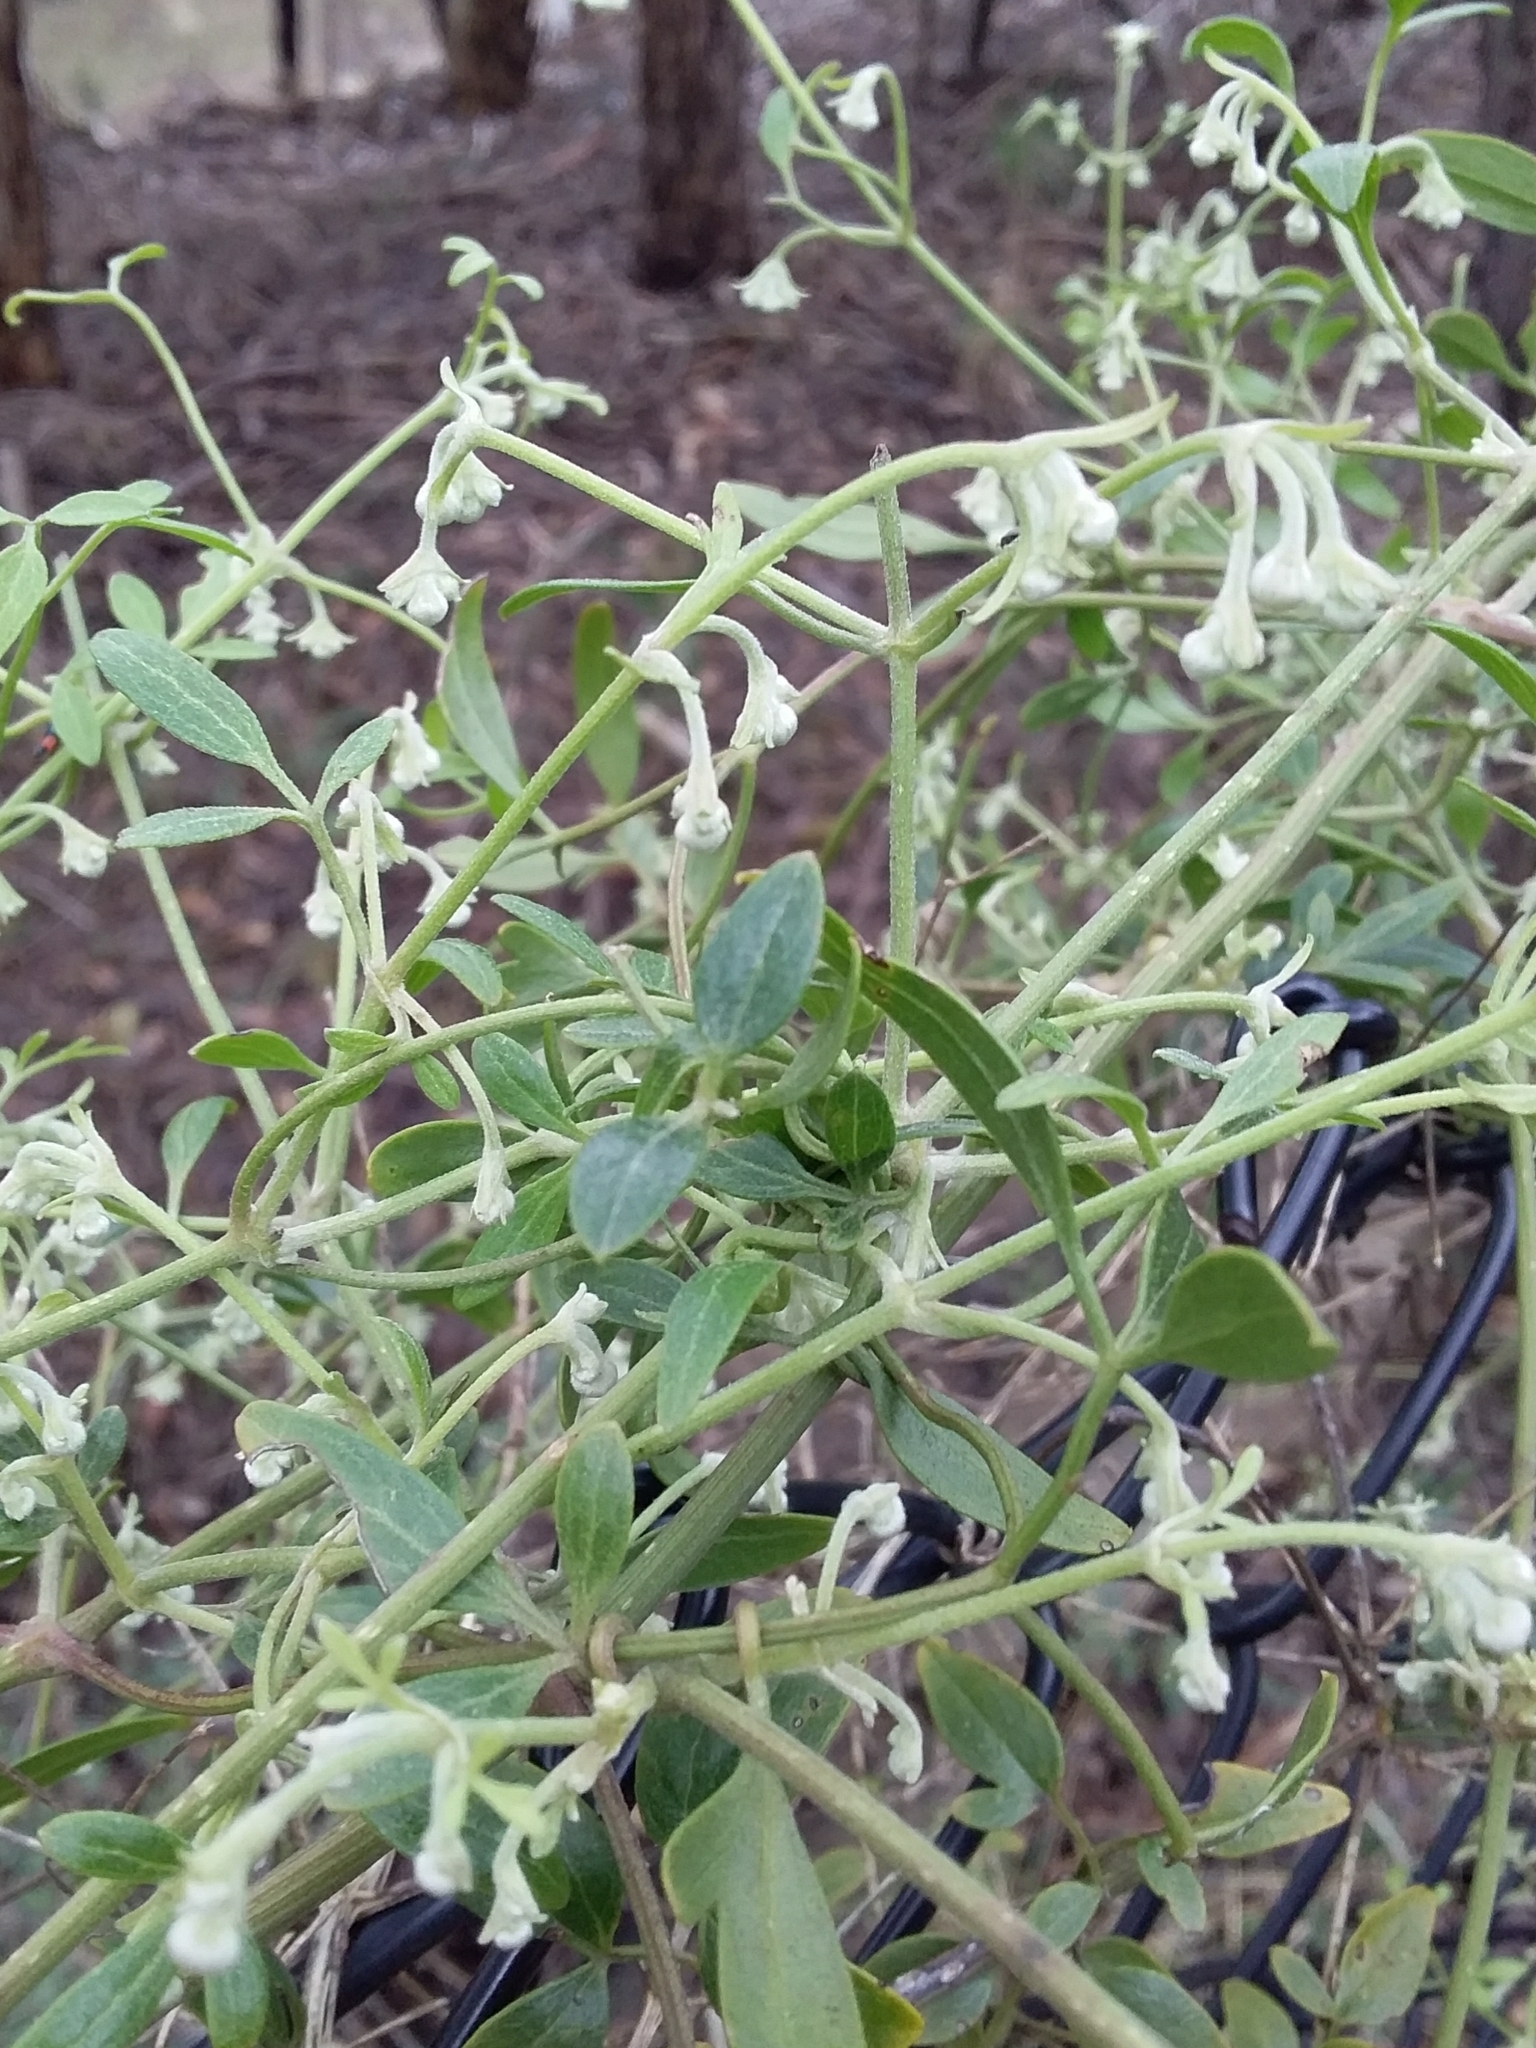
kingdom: Plantae
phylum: Tracheophyta
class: Magnoliopsida
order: Ranunculales
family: Ranunculaceae
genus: Clematis
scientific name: Clematis microphylla
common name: Headachevine
